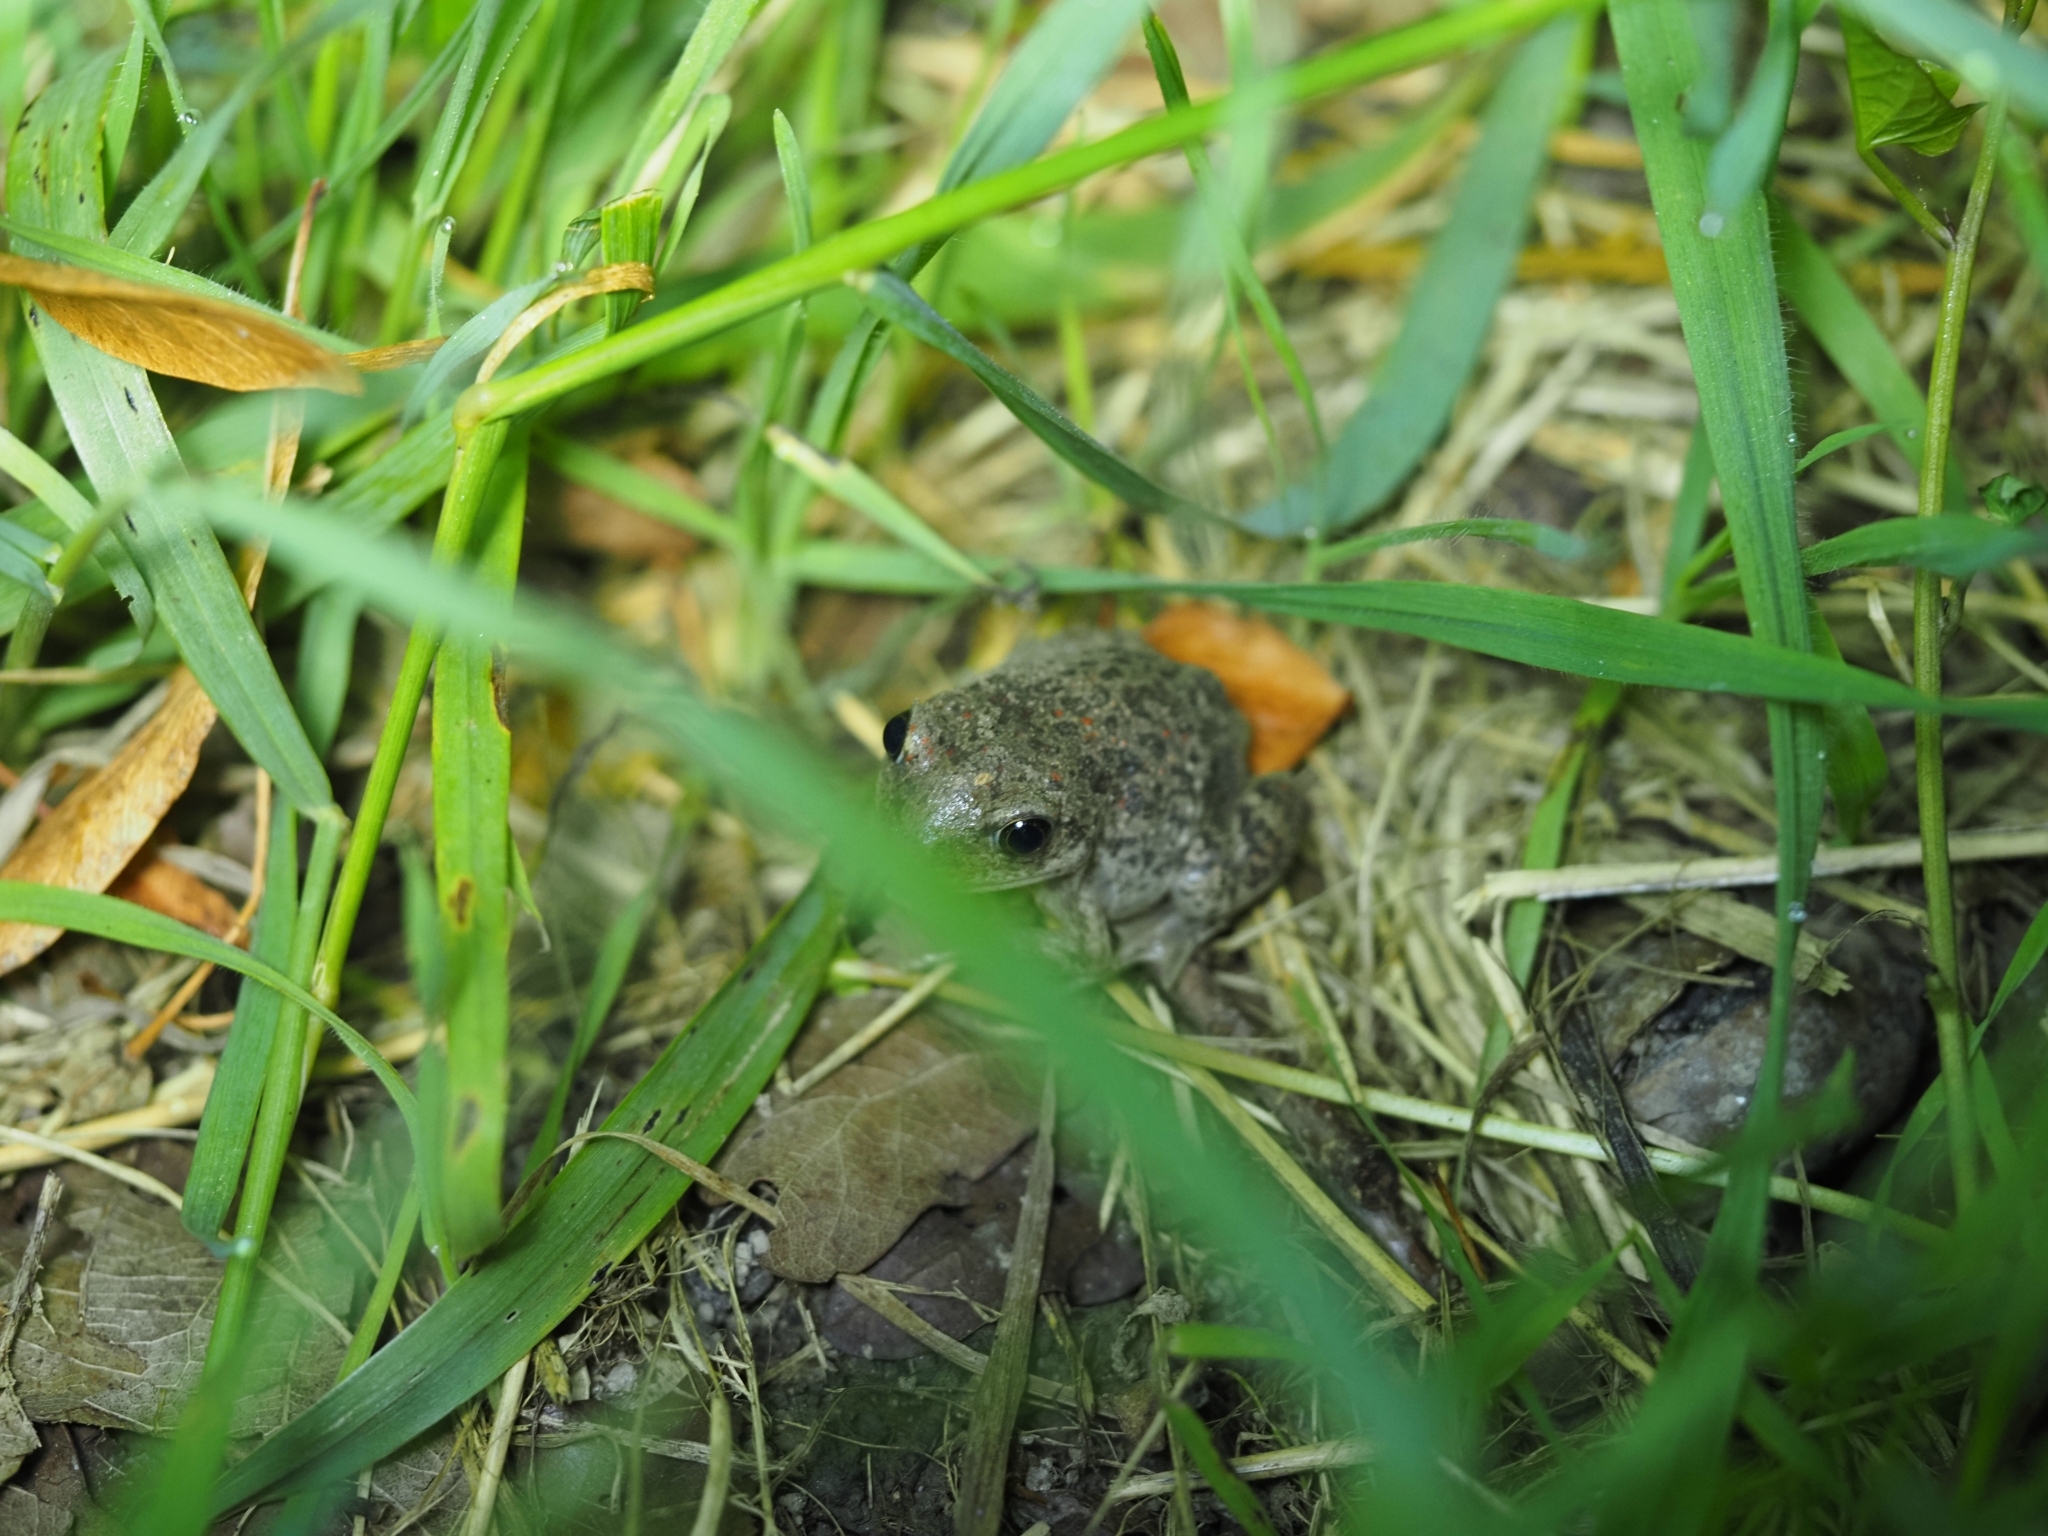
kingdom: Animalia
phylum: Chordata
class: Amphibia
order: Anura
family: Pelobatidae
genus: Pelobates
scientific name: Pelobates fuscus
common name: Common eurasian spadefoot toad
